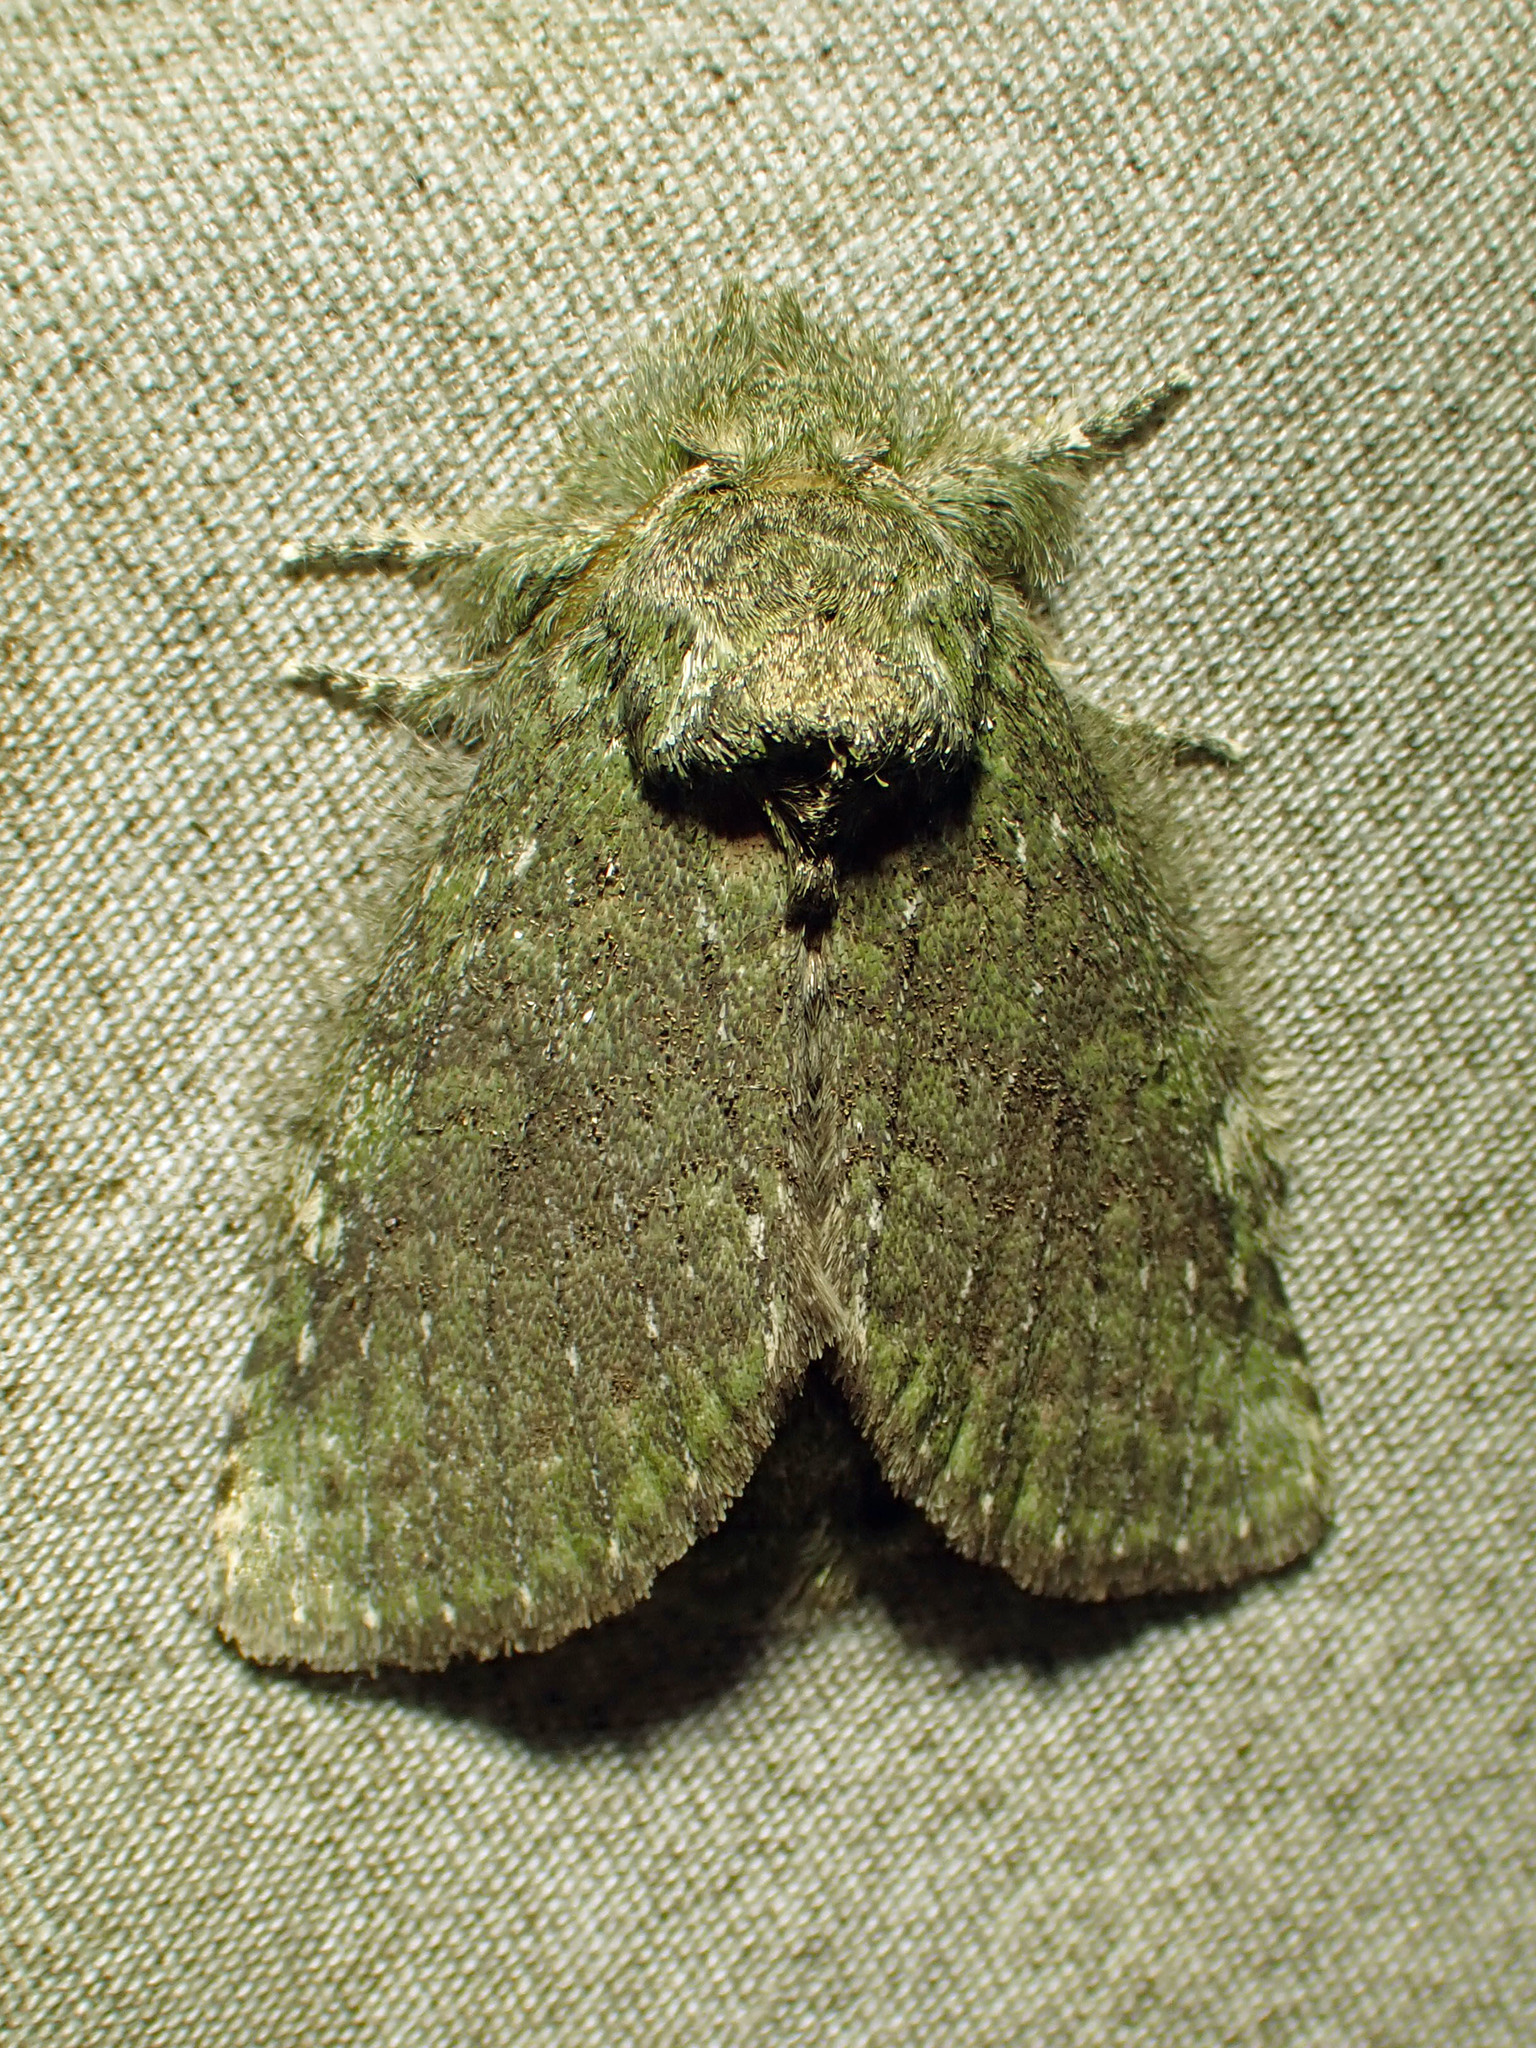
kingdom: Animalia
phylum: Arthropoda
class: Insecta
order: Lepidoptera
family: Notodontidae
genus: Disphragis
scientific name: Disphragis Cecrita guttivitta
